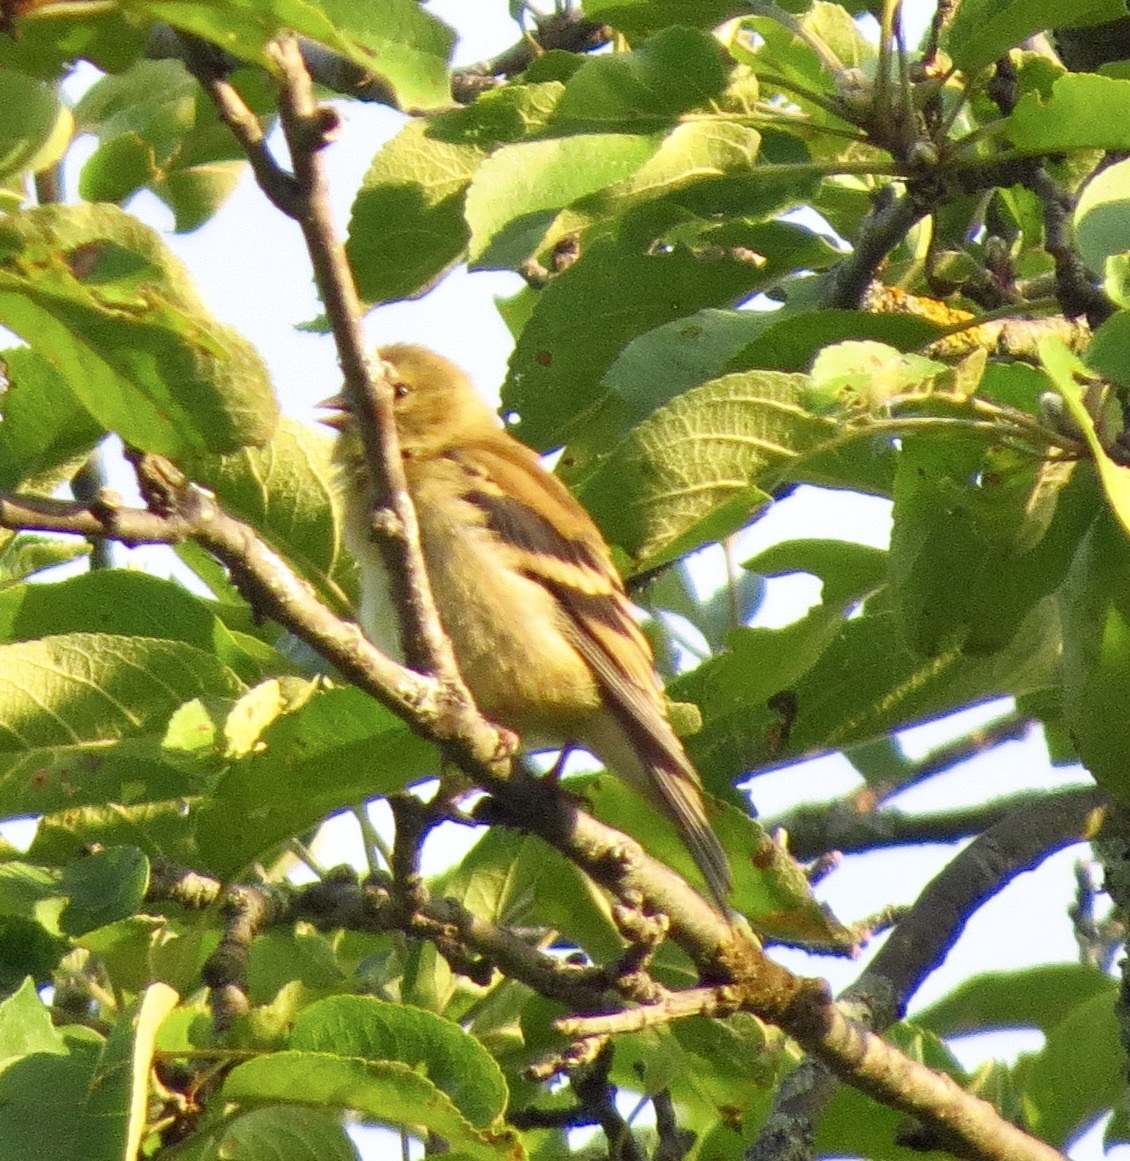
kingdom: Animalia
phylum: Chordata
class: Aves
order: Passeriformes
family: Fringillidae
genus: Spinus
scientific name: Spinus tristis
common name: American goldfinch
